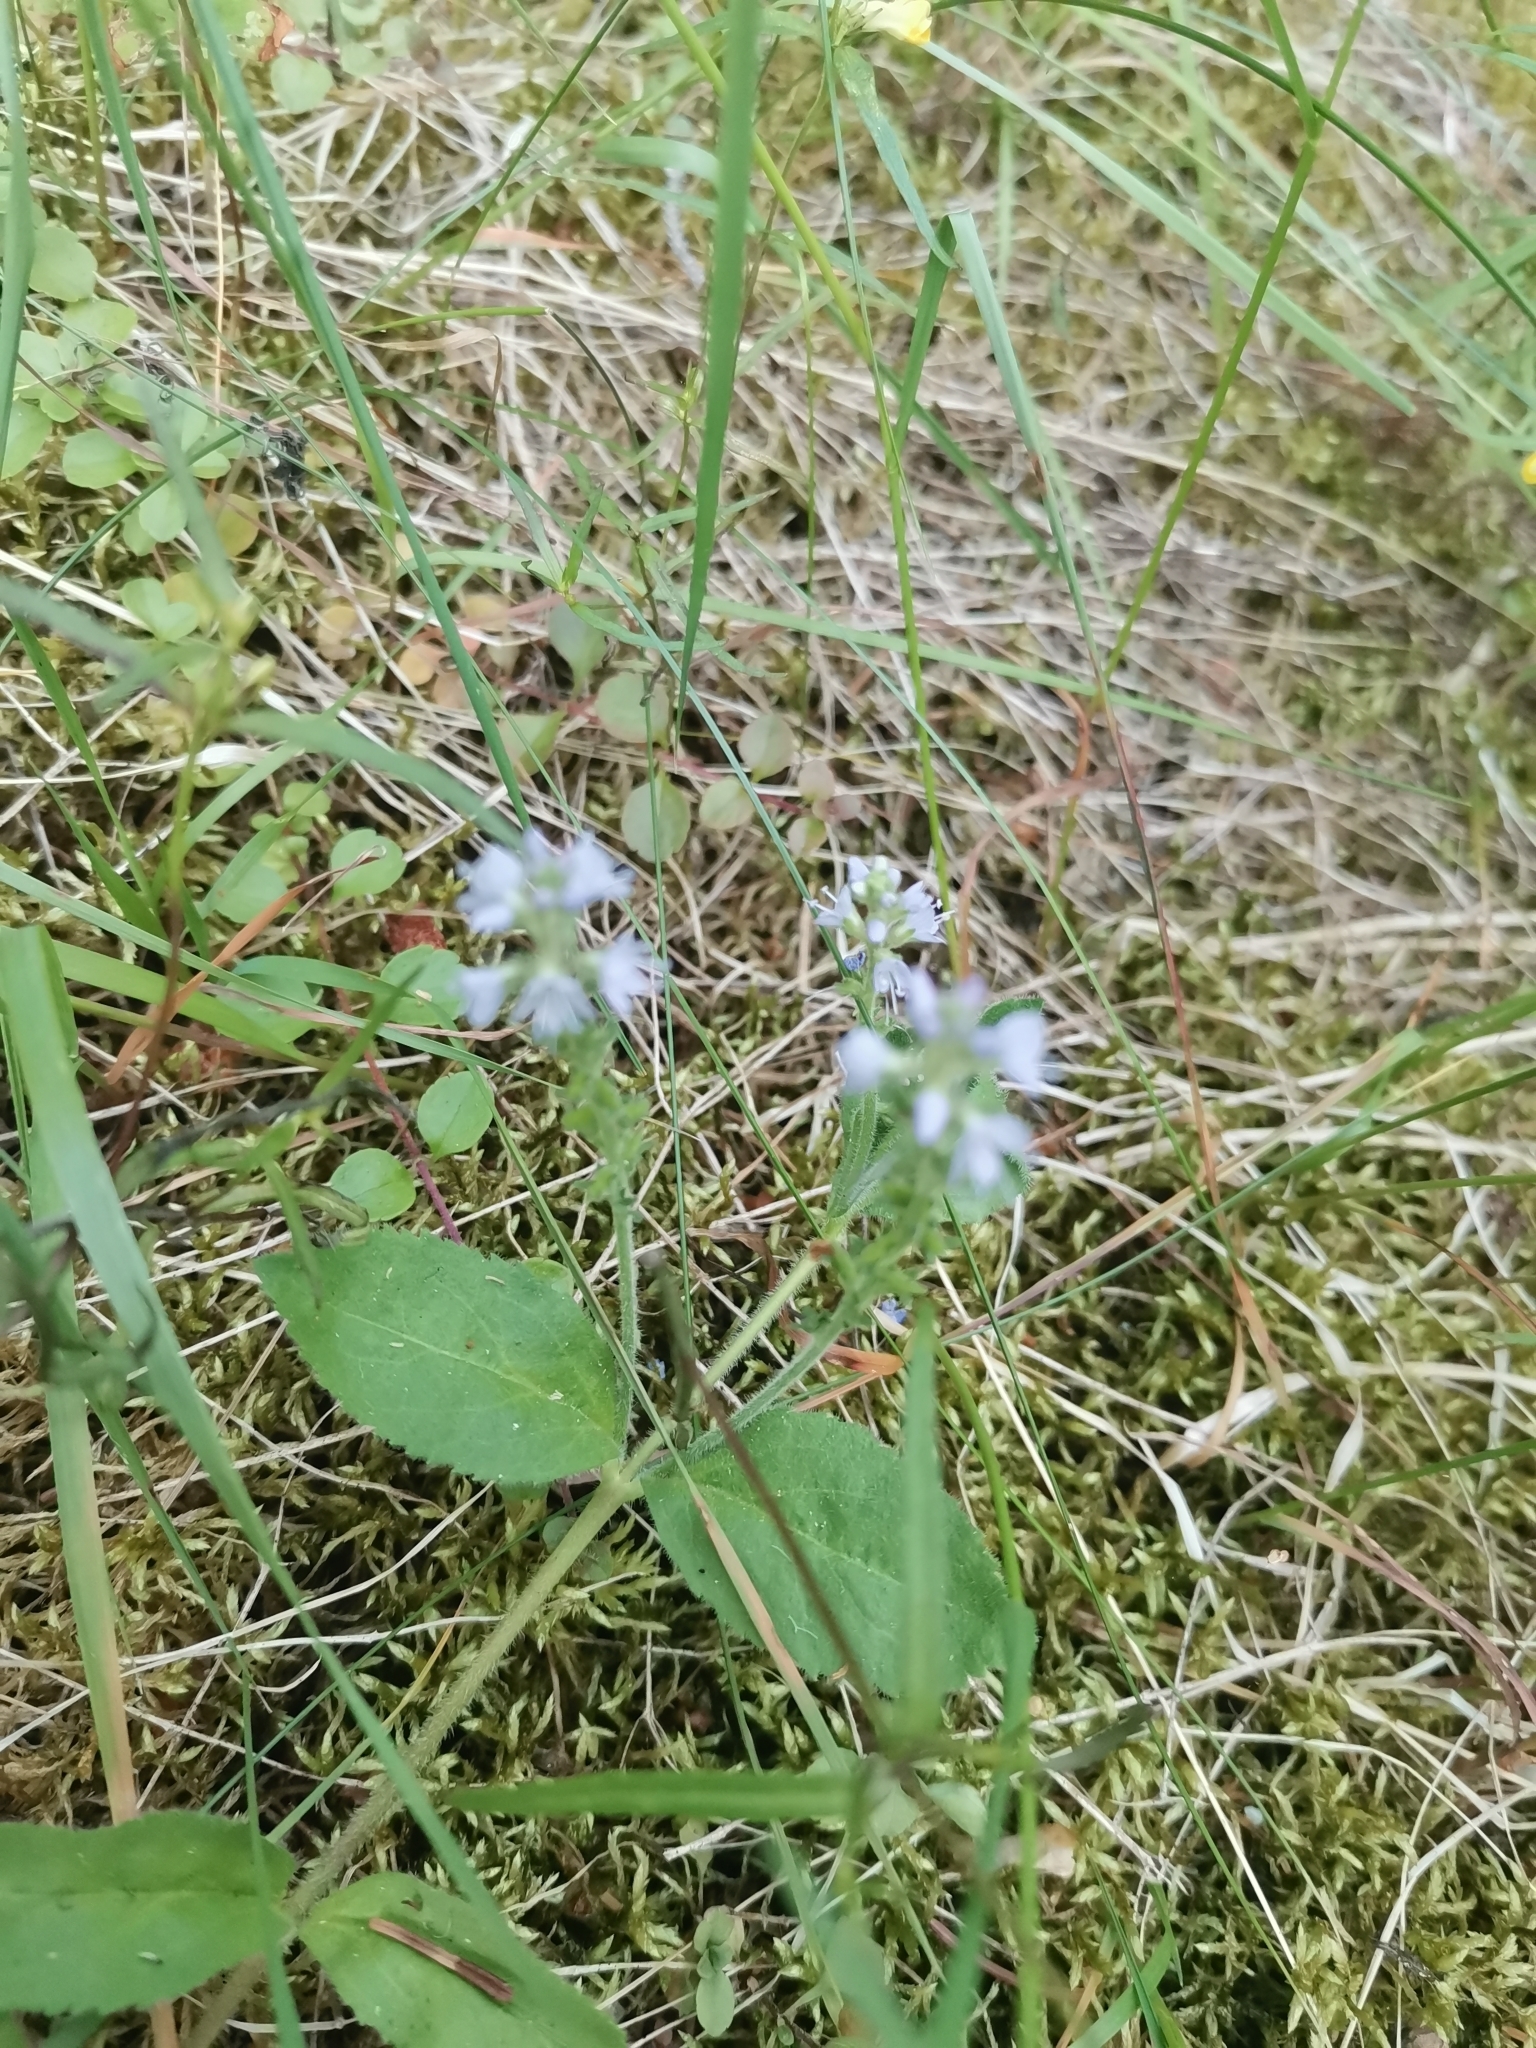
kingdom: Plantae
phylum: Tracheophyta
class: Magnoliopsida
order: Lamiales
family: Plantaginaceae
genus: Veronica
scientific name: Veronica officinalis
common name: Common speedwell
